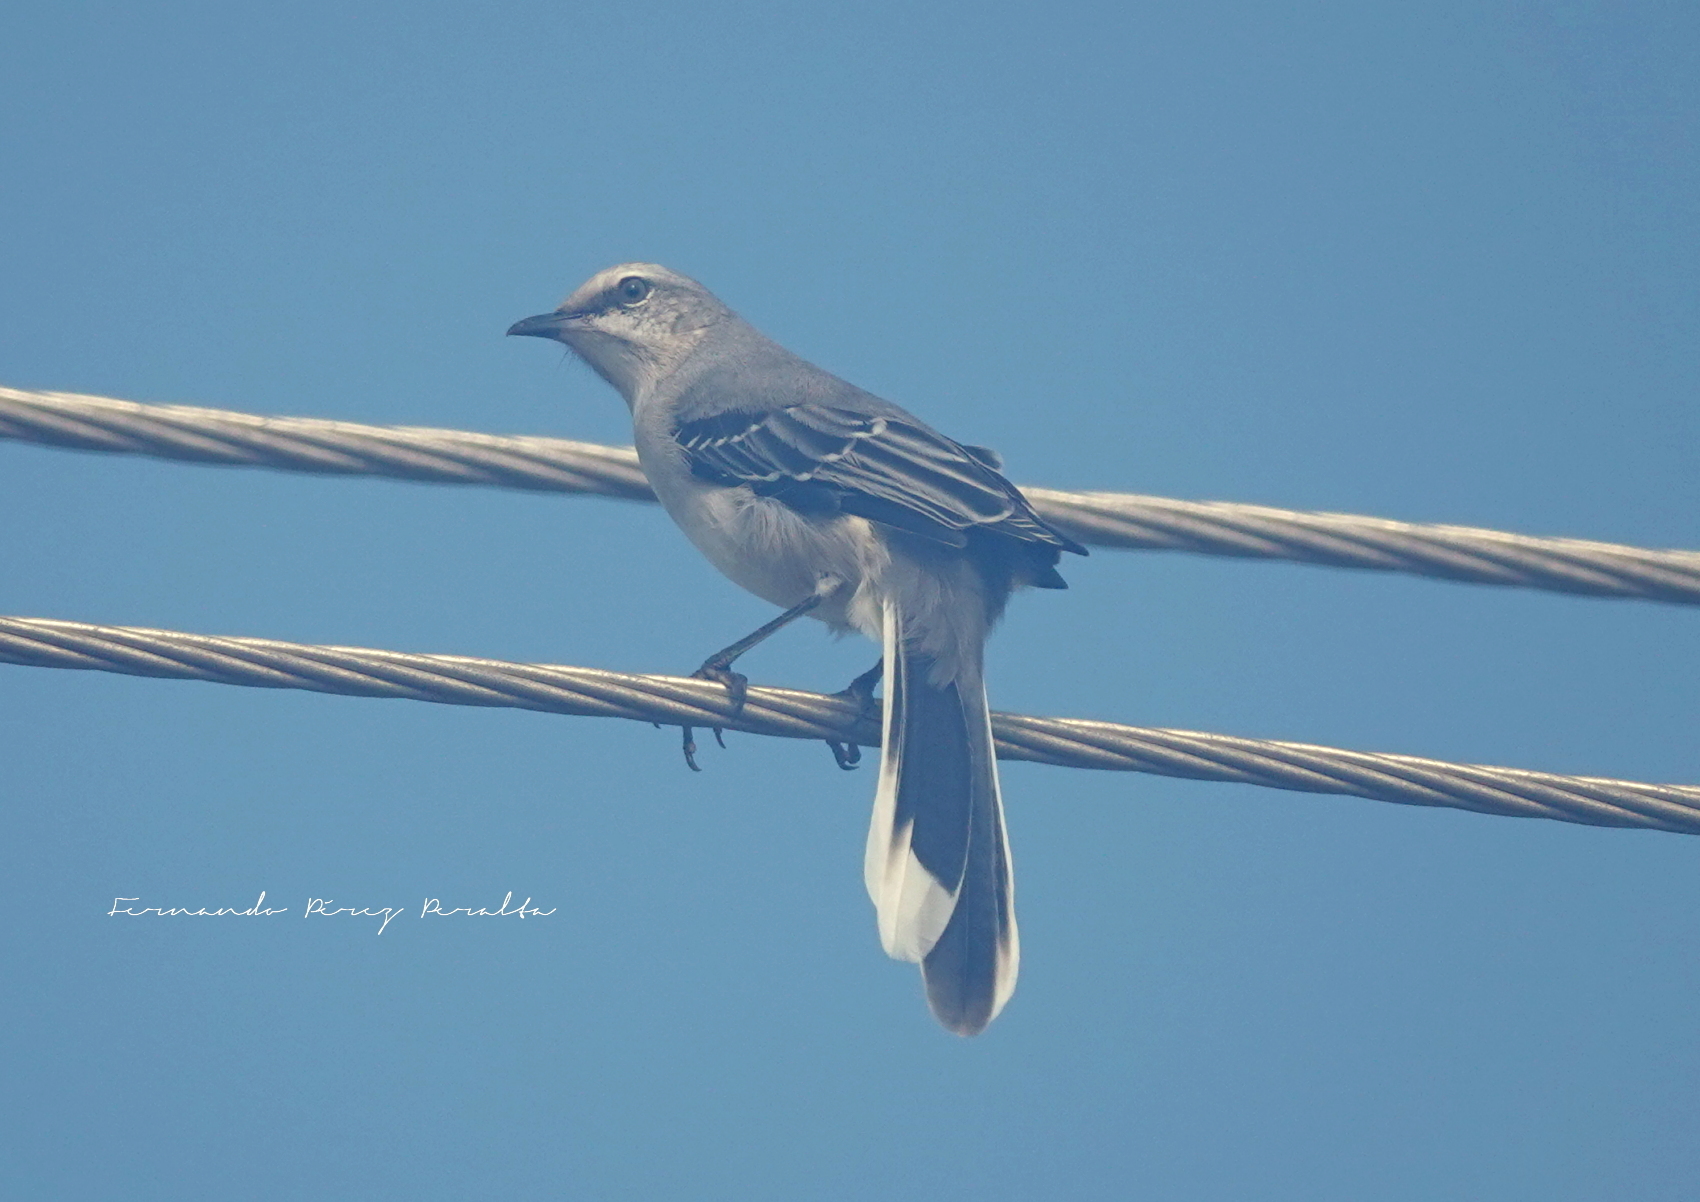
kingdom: Animalia
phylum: Chordata
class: Aves
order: Passeriformes
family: Mimidae
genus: Mimus
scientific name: Mimus gilvus
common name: Tropical mockingbird
